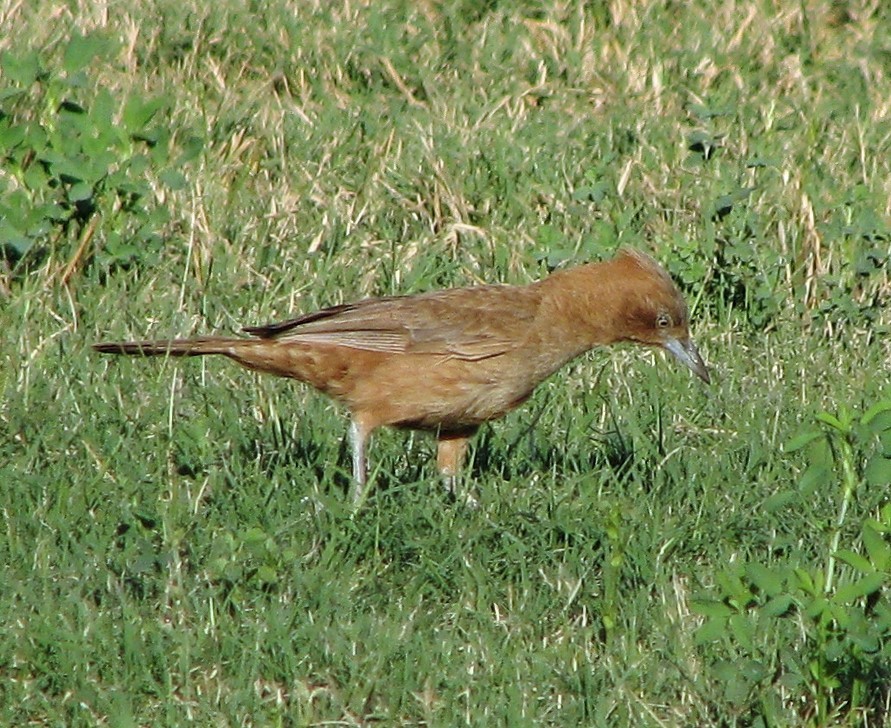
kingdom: Animalia
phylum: Chordata
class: Aves
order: Passeriformes
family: Furnariidae
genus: Pseudoseisura
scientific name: Pseudoseisura lophotes
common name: Brown cacholote
